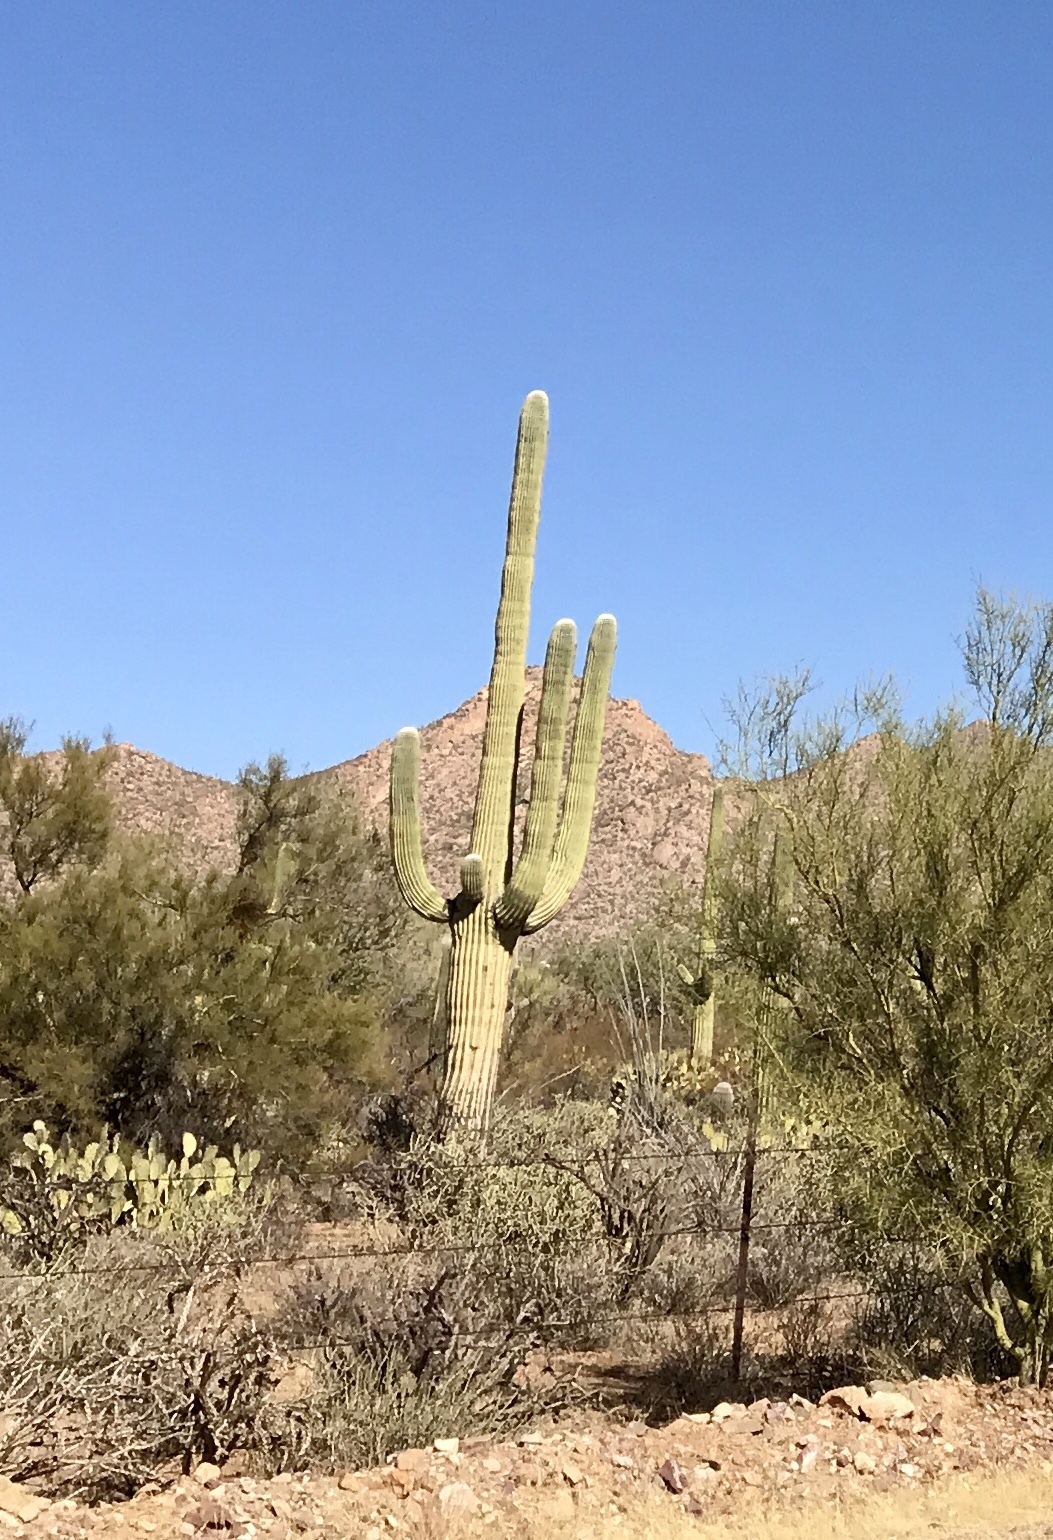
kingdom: Plantae
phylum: Tracheophyta
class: Magnoliopsida
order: Caryophyllales
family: Cactaceae
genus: Carnegiea
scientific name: Carnegiea gigantea
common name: Saguaro
